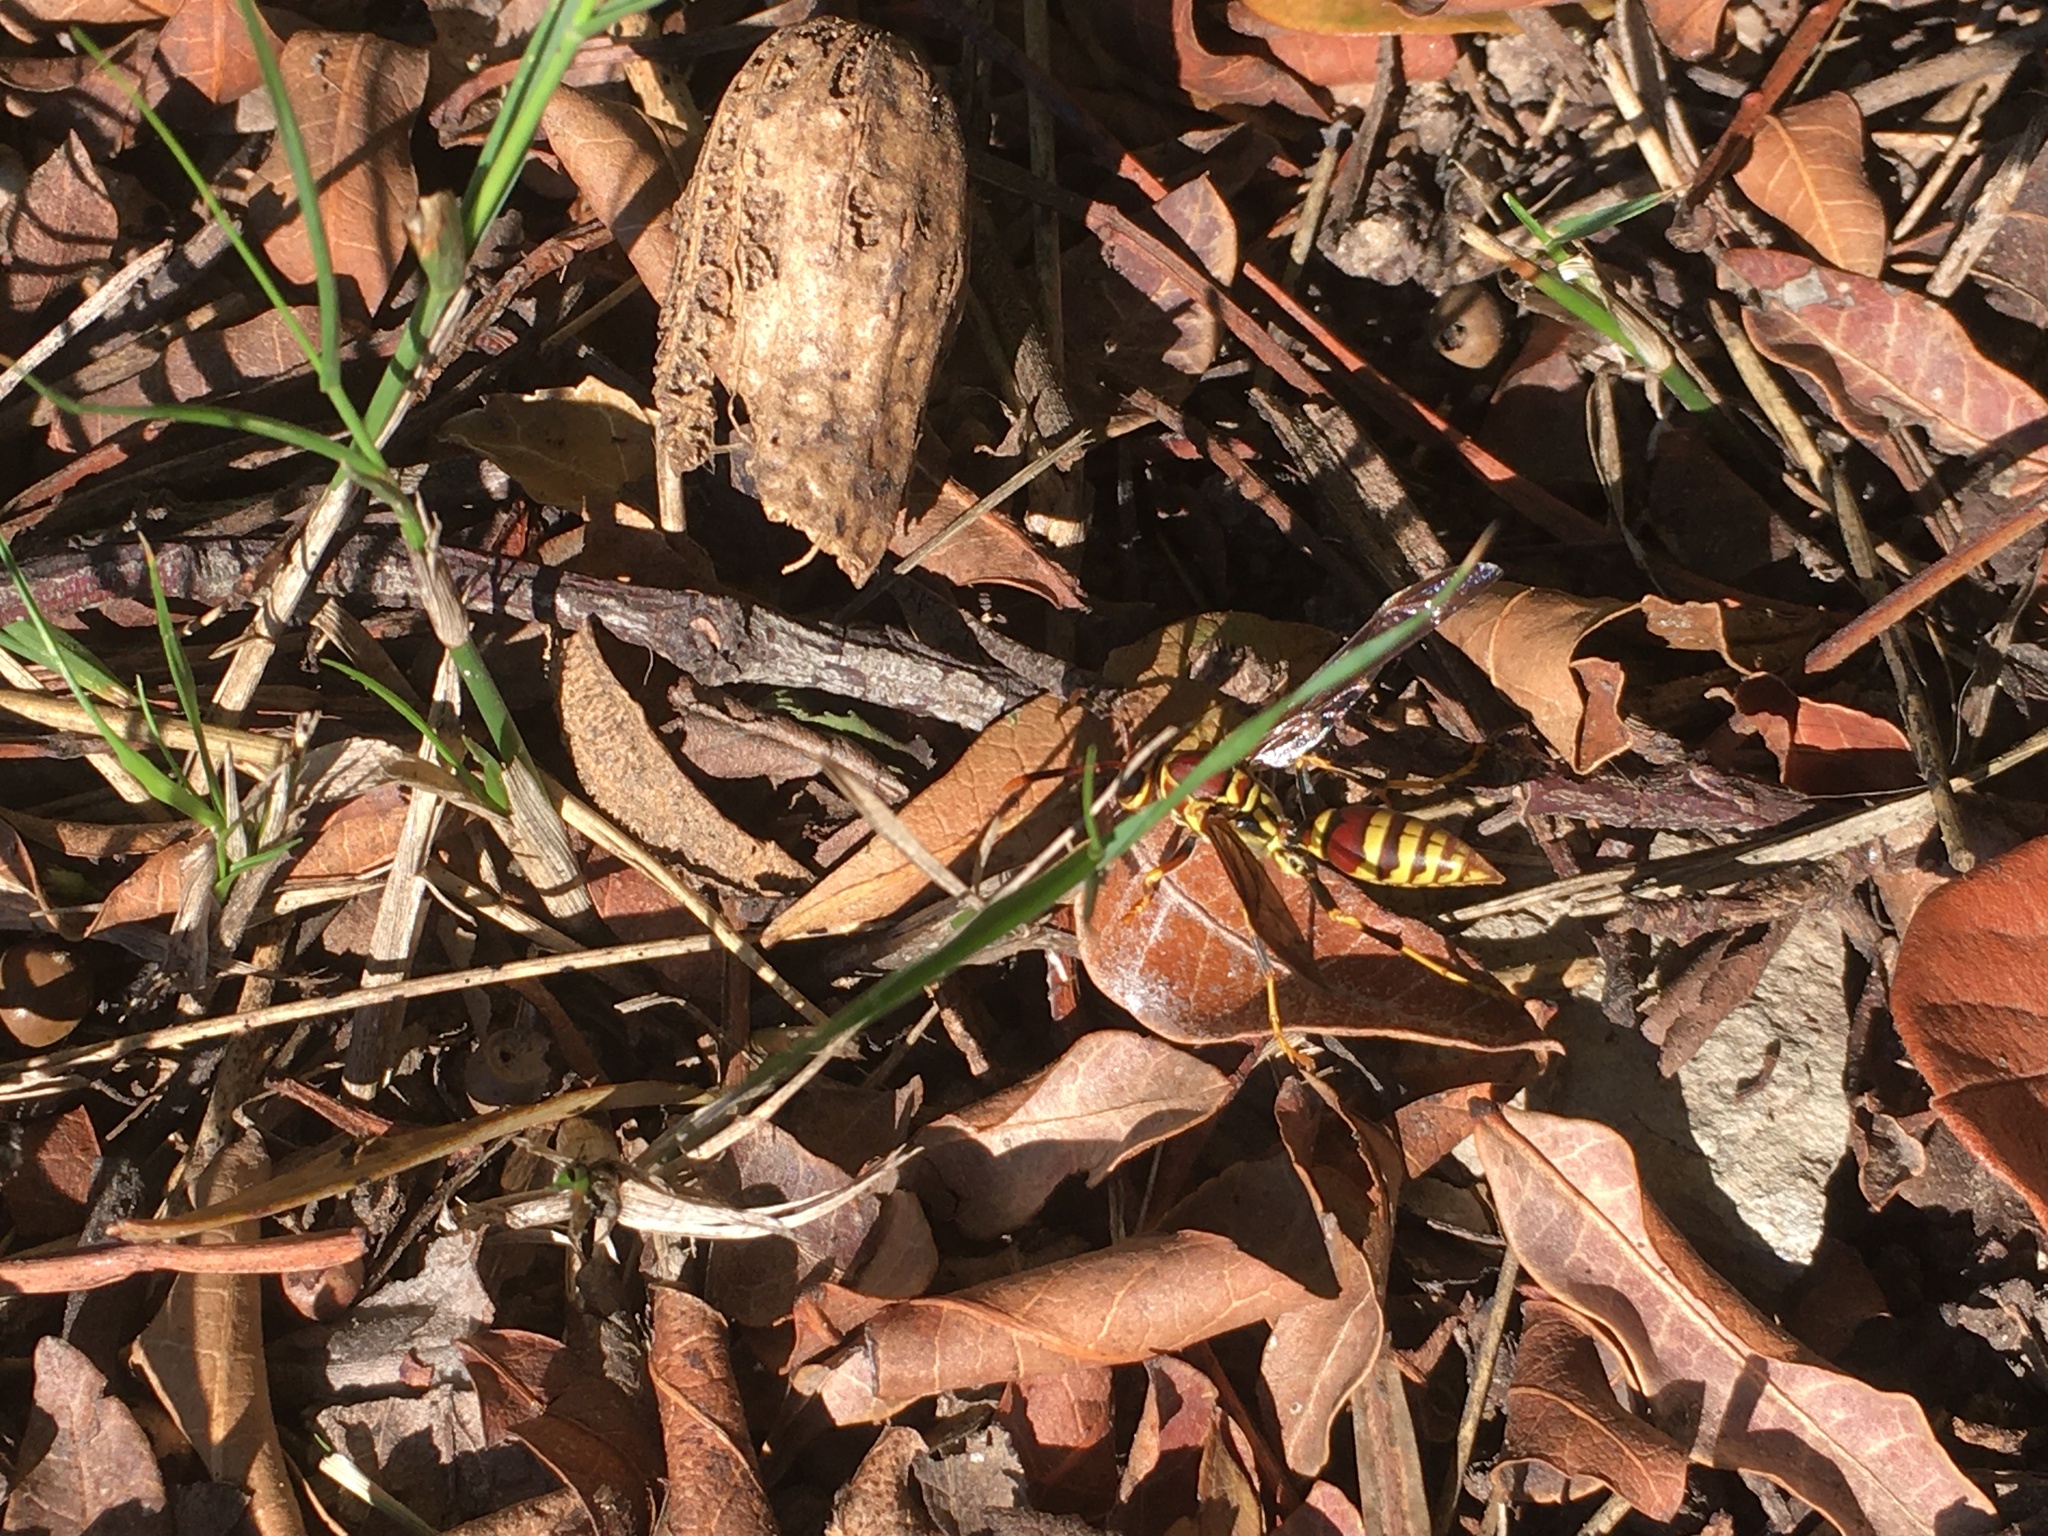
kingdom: Animalia
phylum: Arthropoda
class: Insecta
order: Hymenoptera
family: Eumenidae
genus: Polistes
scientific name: Polistes exclamans
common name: Paper wasp
